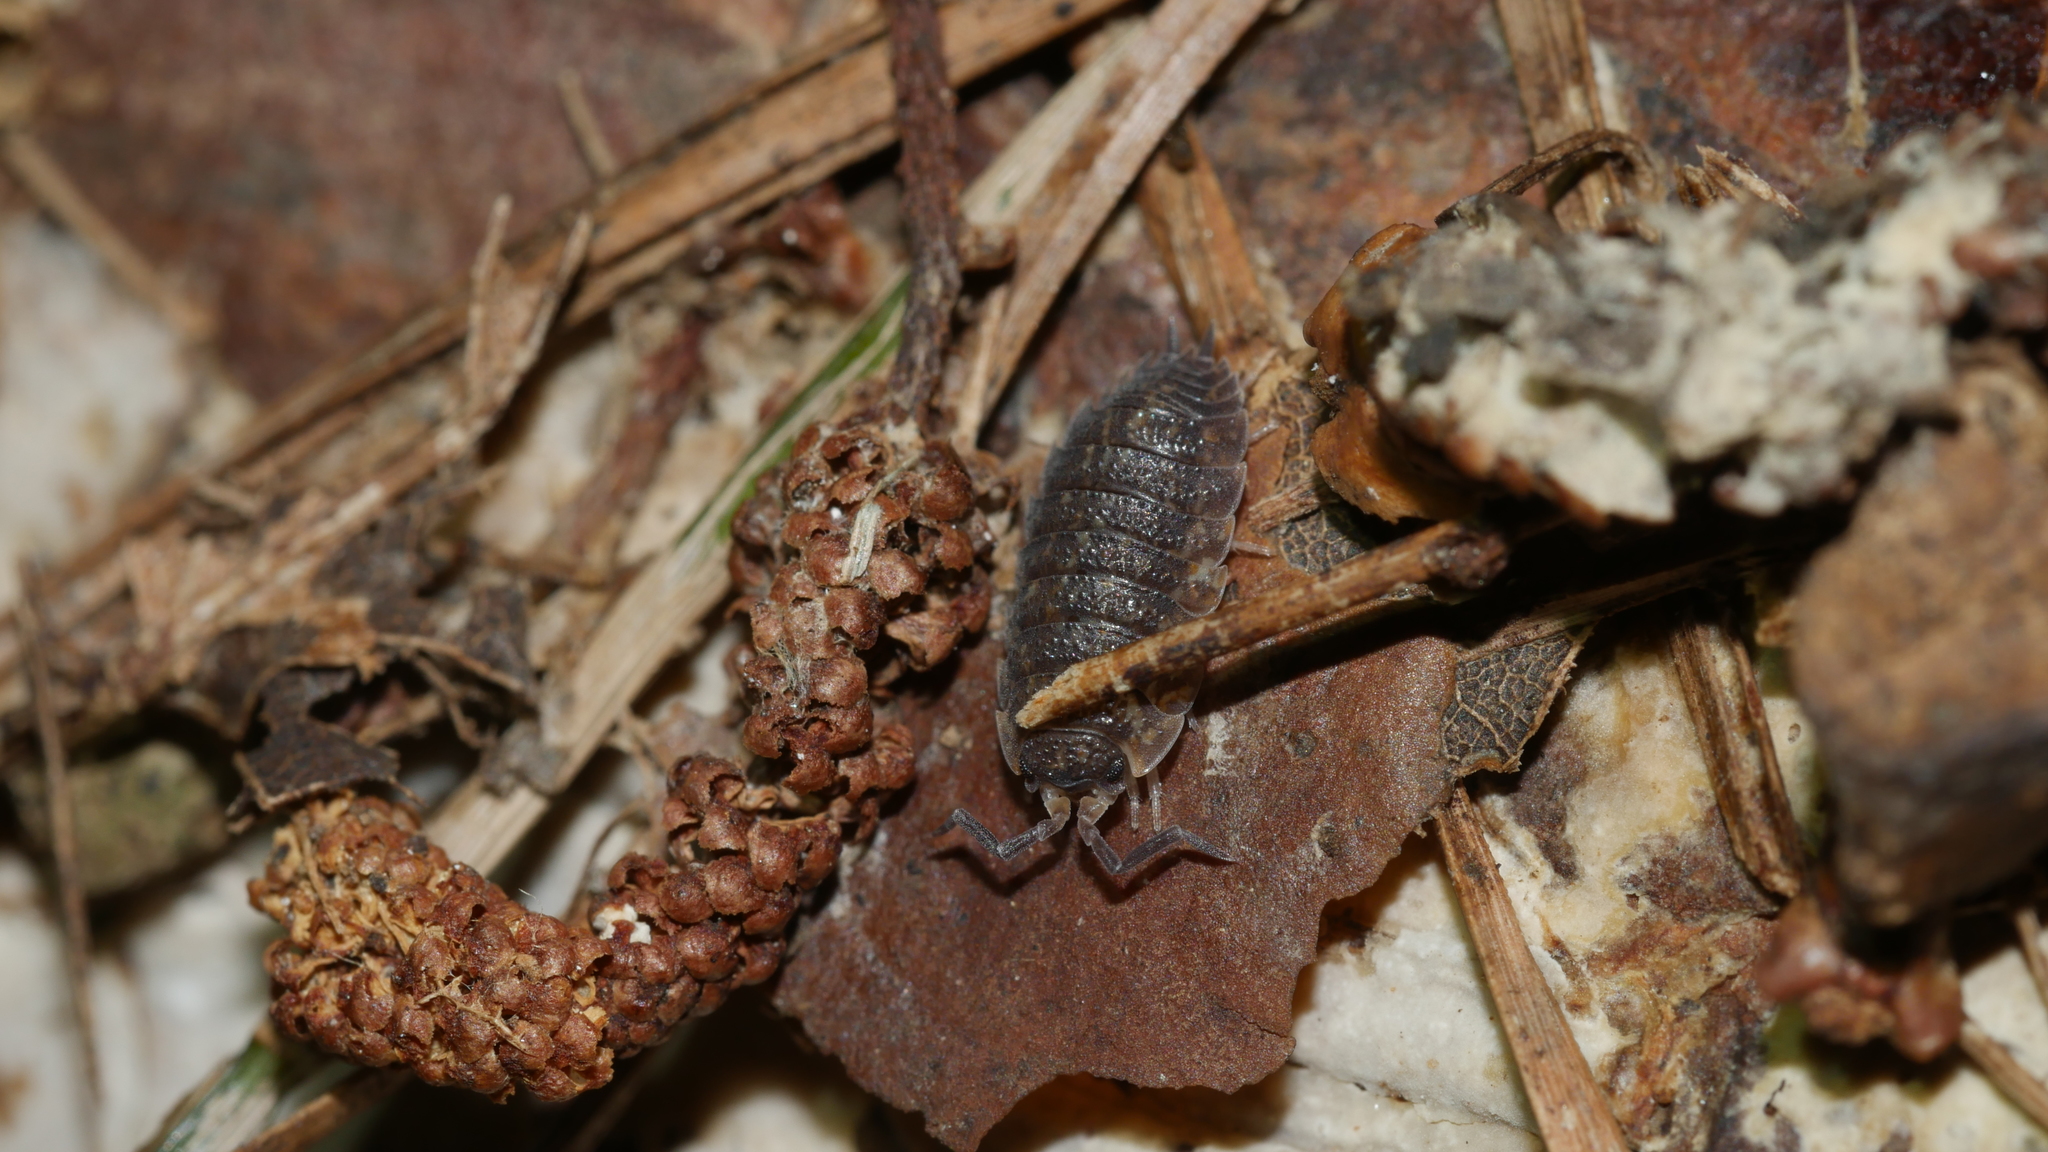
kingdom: Animalia
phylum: Arthropoda
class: Malacostraca
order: Isopoda
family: Porcellionidae
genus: Porcellio
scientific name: Porcellio scaber
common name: Common rough woodlouse
